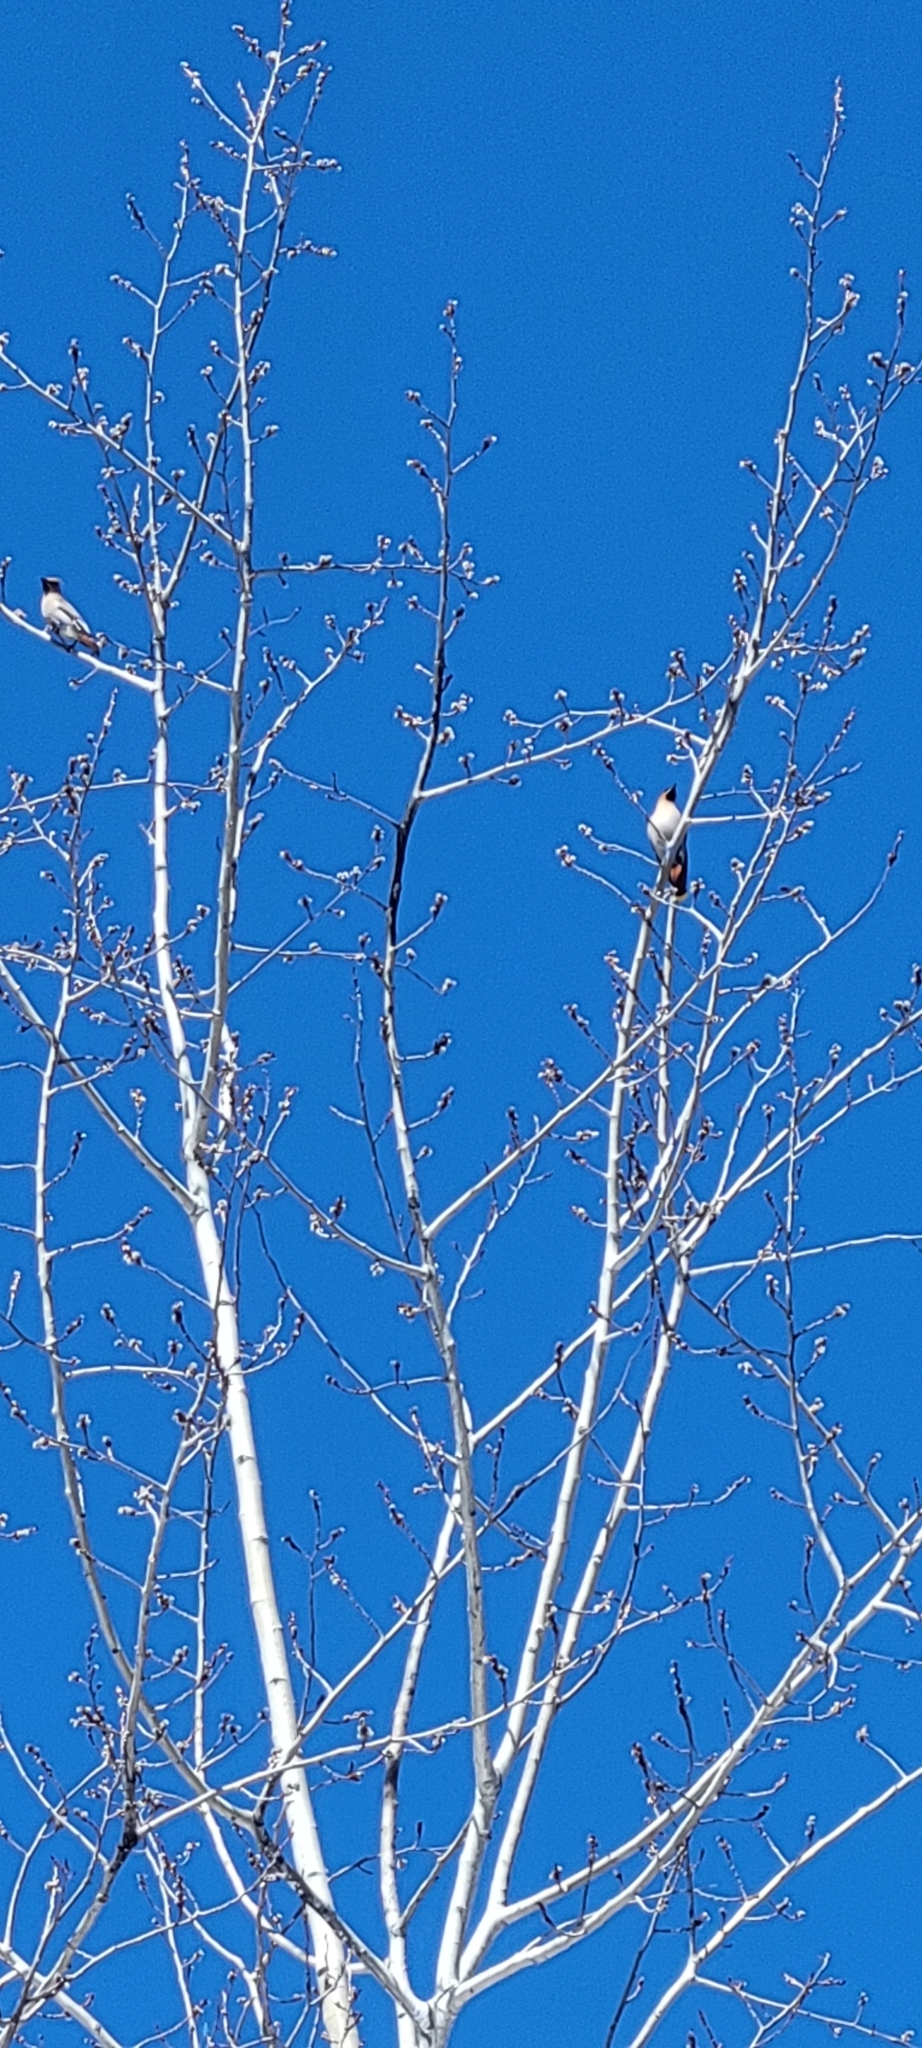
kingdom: Animalia
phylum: Chordata
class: Aves
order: Passeriformes
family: Bombycillidae
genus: Bombycilla
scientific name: Bombycilla garrulus
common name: Bohemian waxwing
